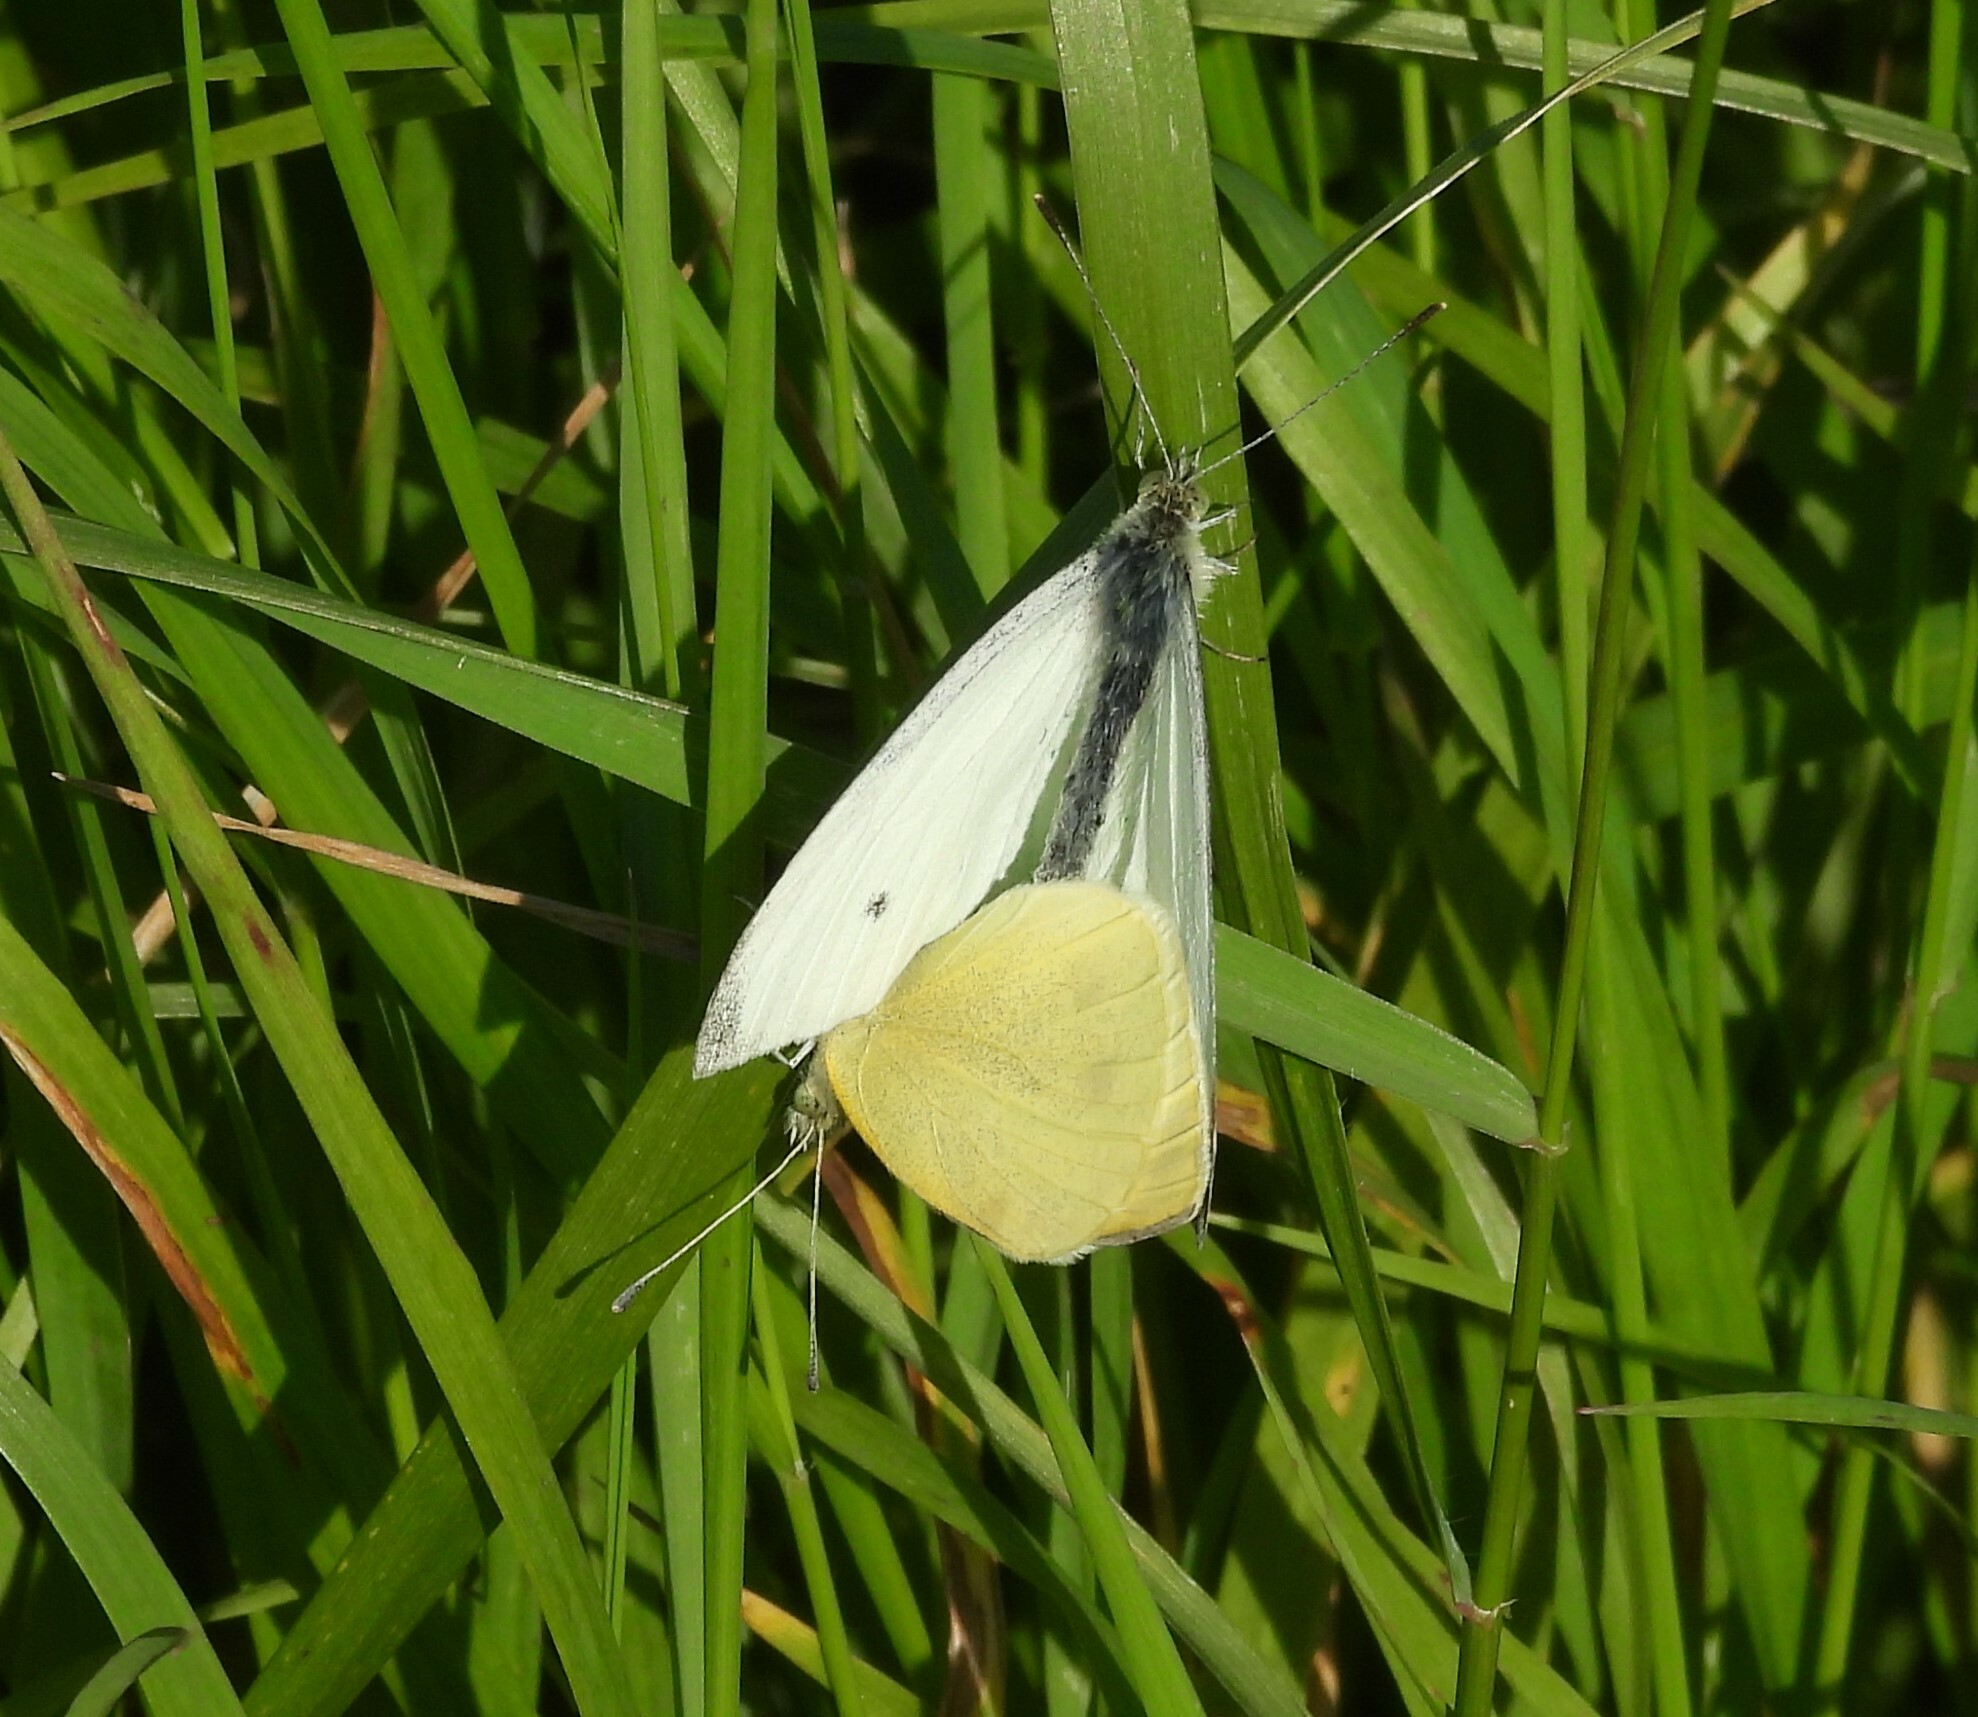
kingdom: Animalia
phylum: Arthropoda
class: Insecta
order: Lepidoptera
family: Pieridae
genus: Pieris
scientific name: Pieris rapae
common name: Small white
